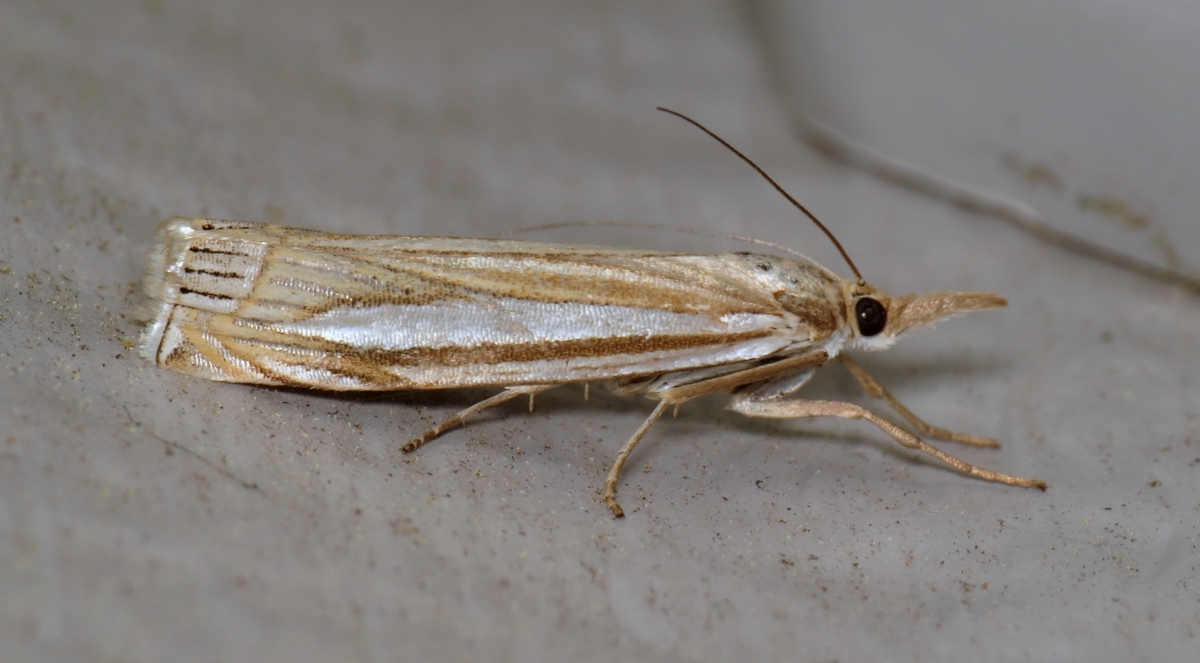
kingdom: Animalia
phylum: Arthropoda
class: Insecta
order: Lepidoptera
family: Crambidae
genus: Crambus
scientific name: Crambus laqueatellus
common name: Eastern grass-veneer
